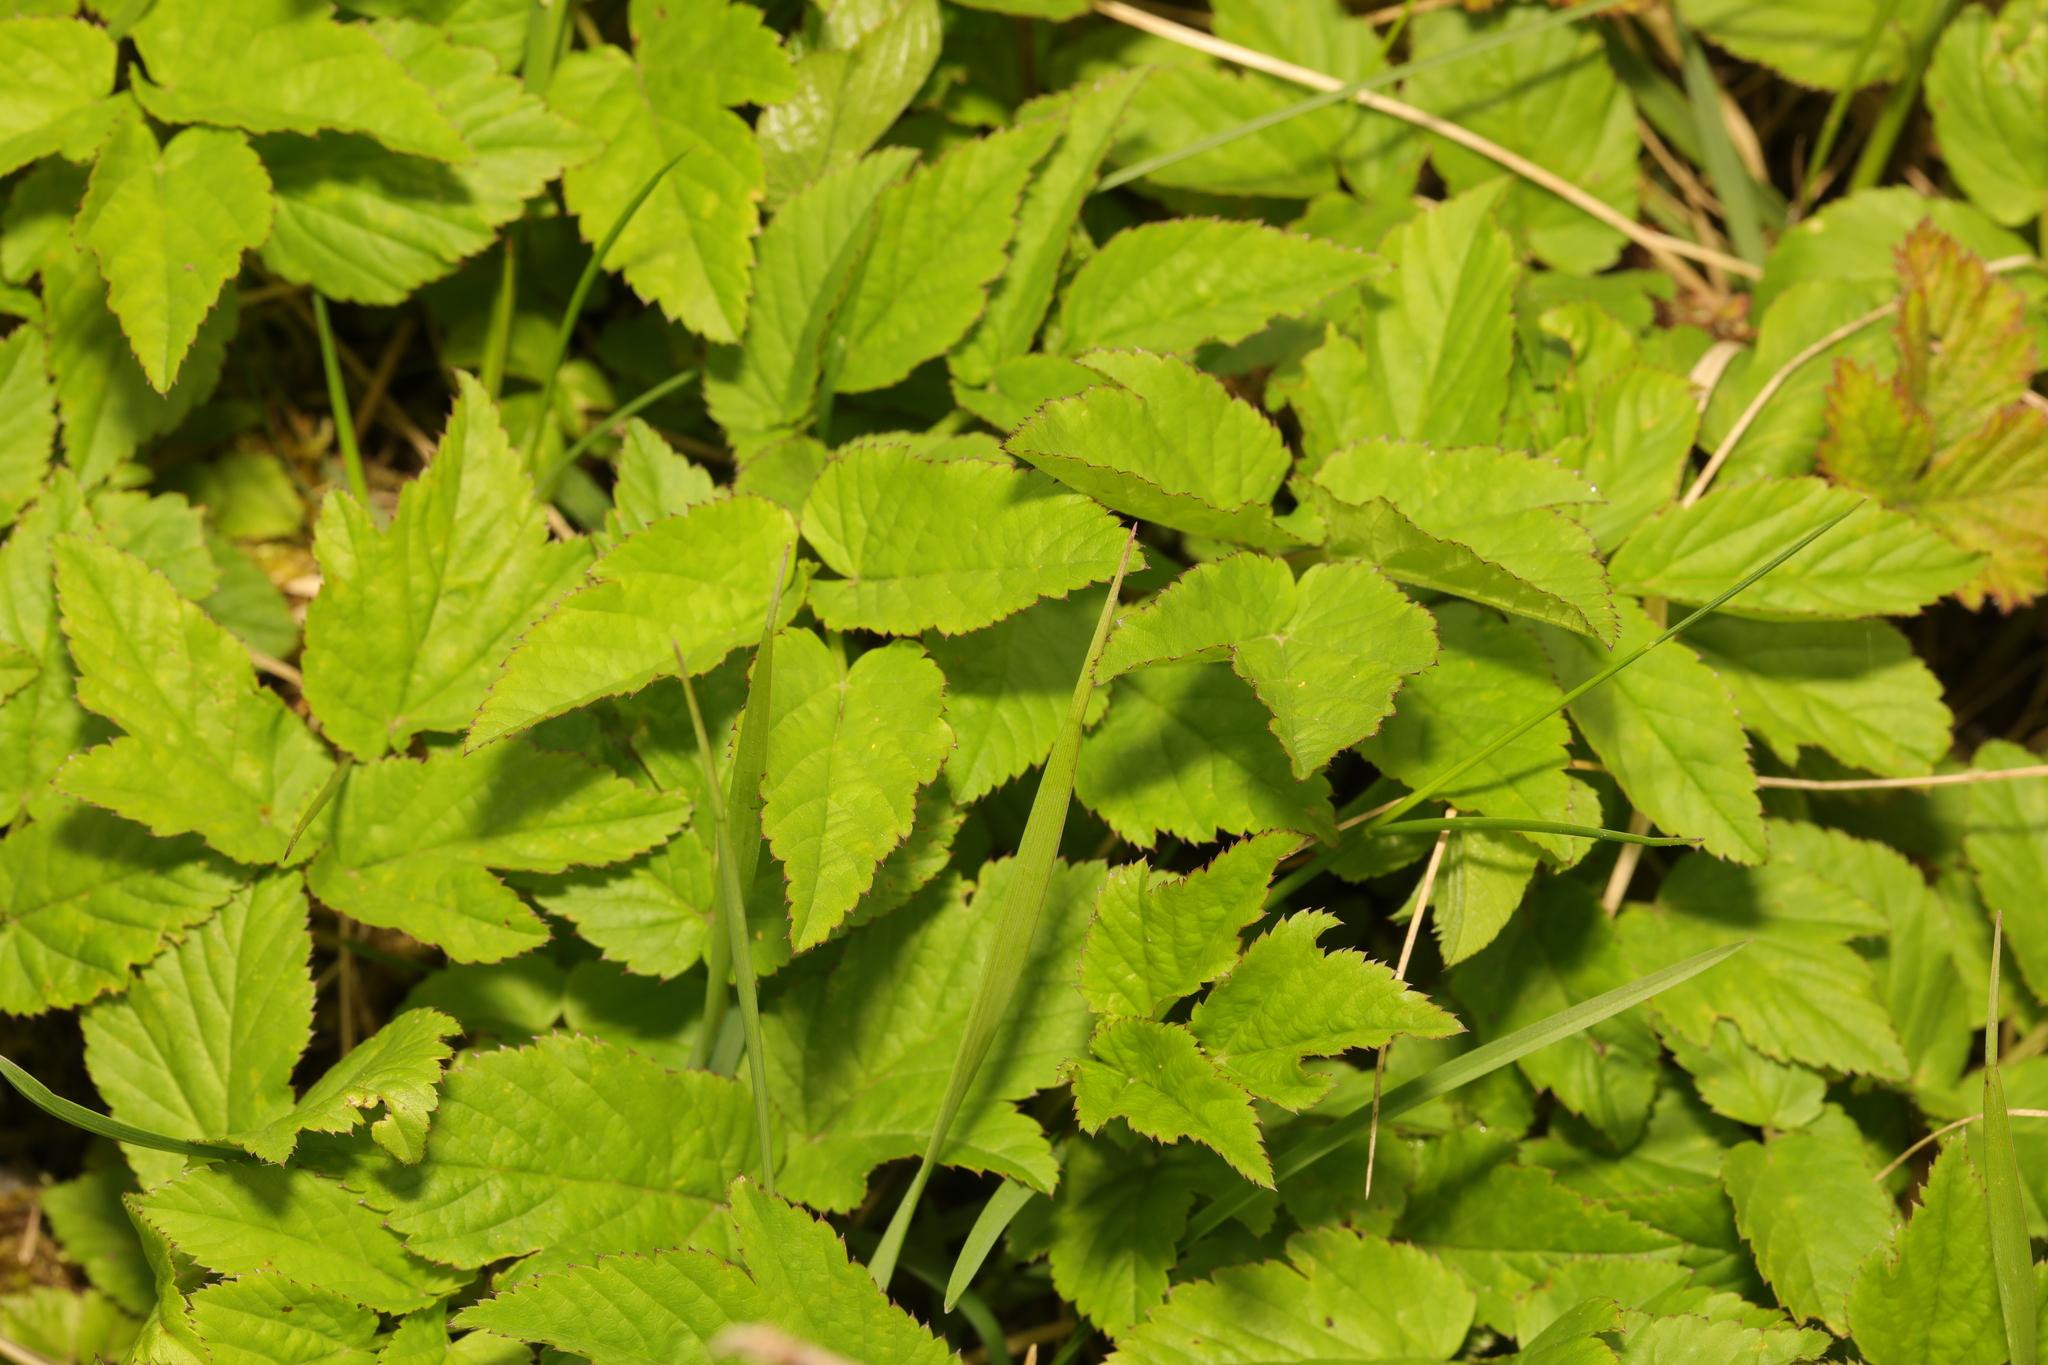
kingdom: Plantae
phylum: Tracheophyta
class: Magnoliopsida
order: Apiales
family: Apiaceae
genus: Aegopodium
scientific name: Aegopodium podagraria
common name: Ground-elder
